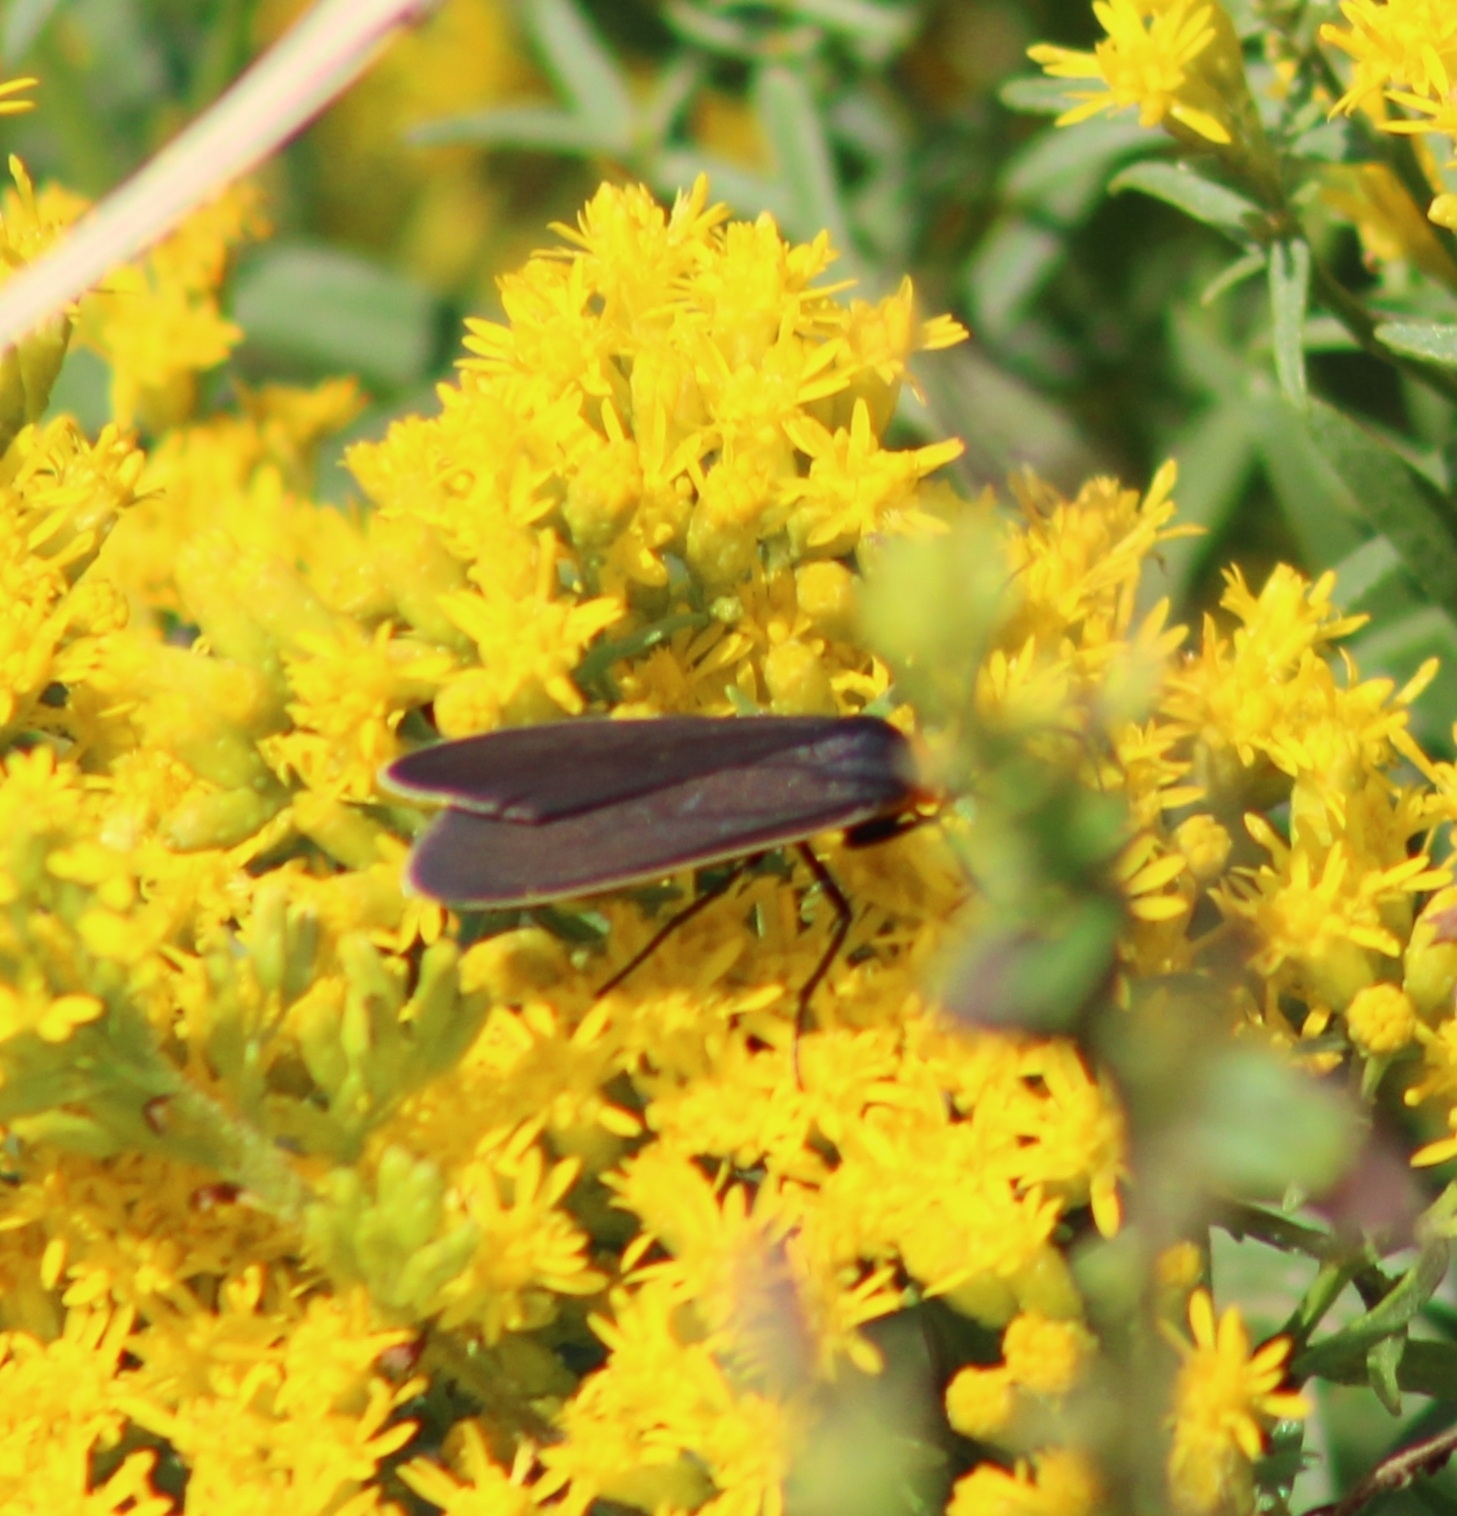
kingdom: Animalia
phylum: Arthropoda
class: Insecta
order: Lepidoptera
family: Erebidae
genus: Cisseps
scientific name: Cisseps fulvicollis
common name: Yellow-collared scape moth
